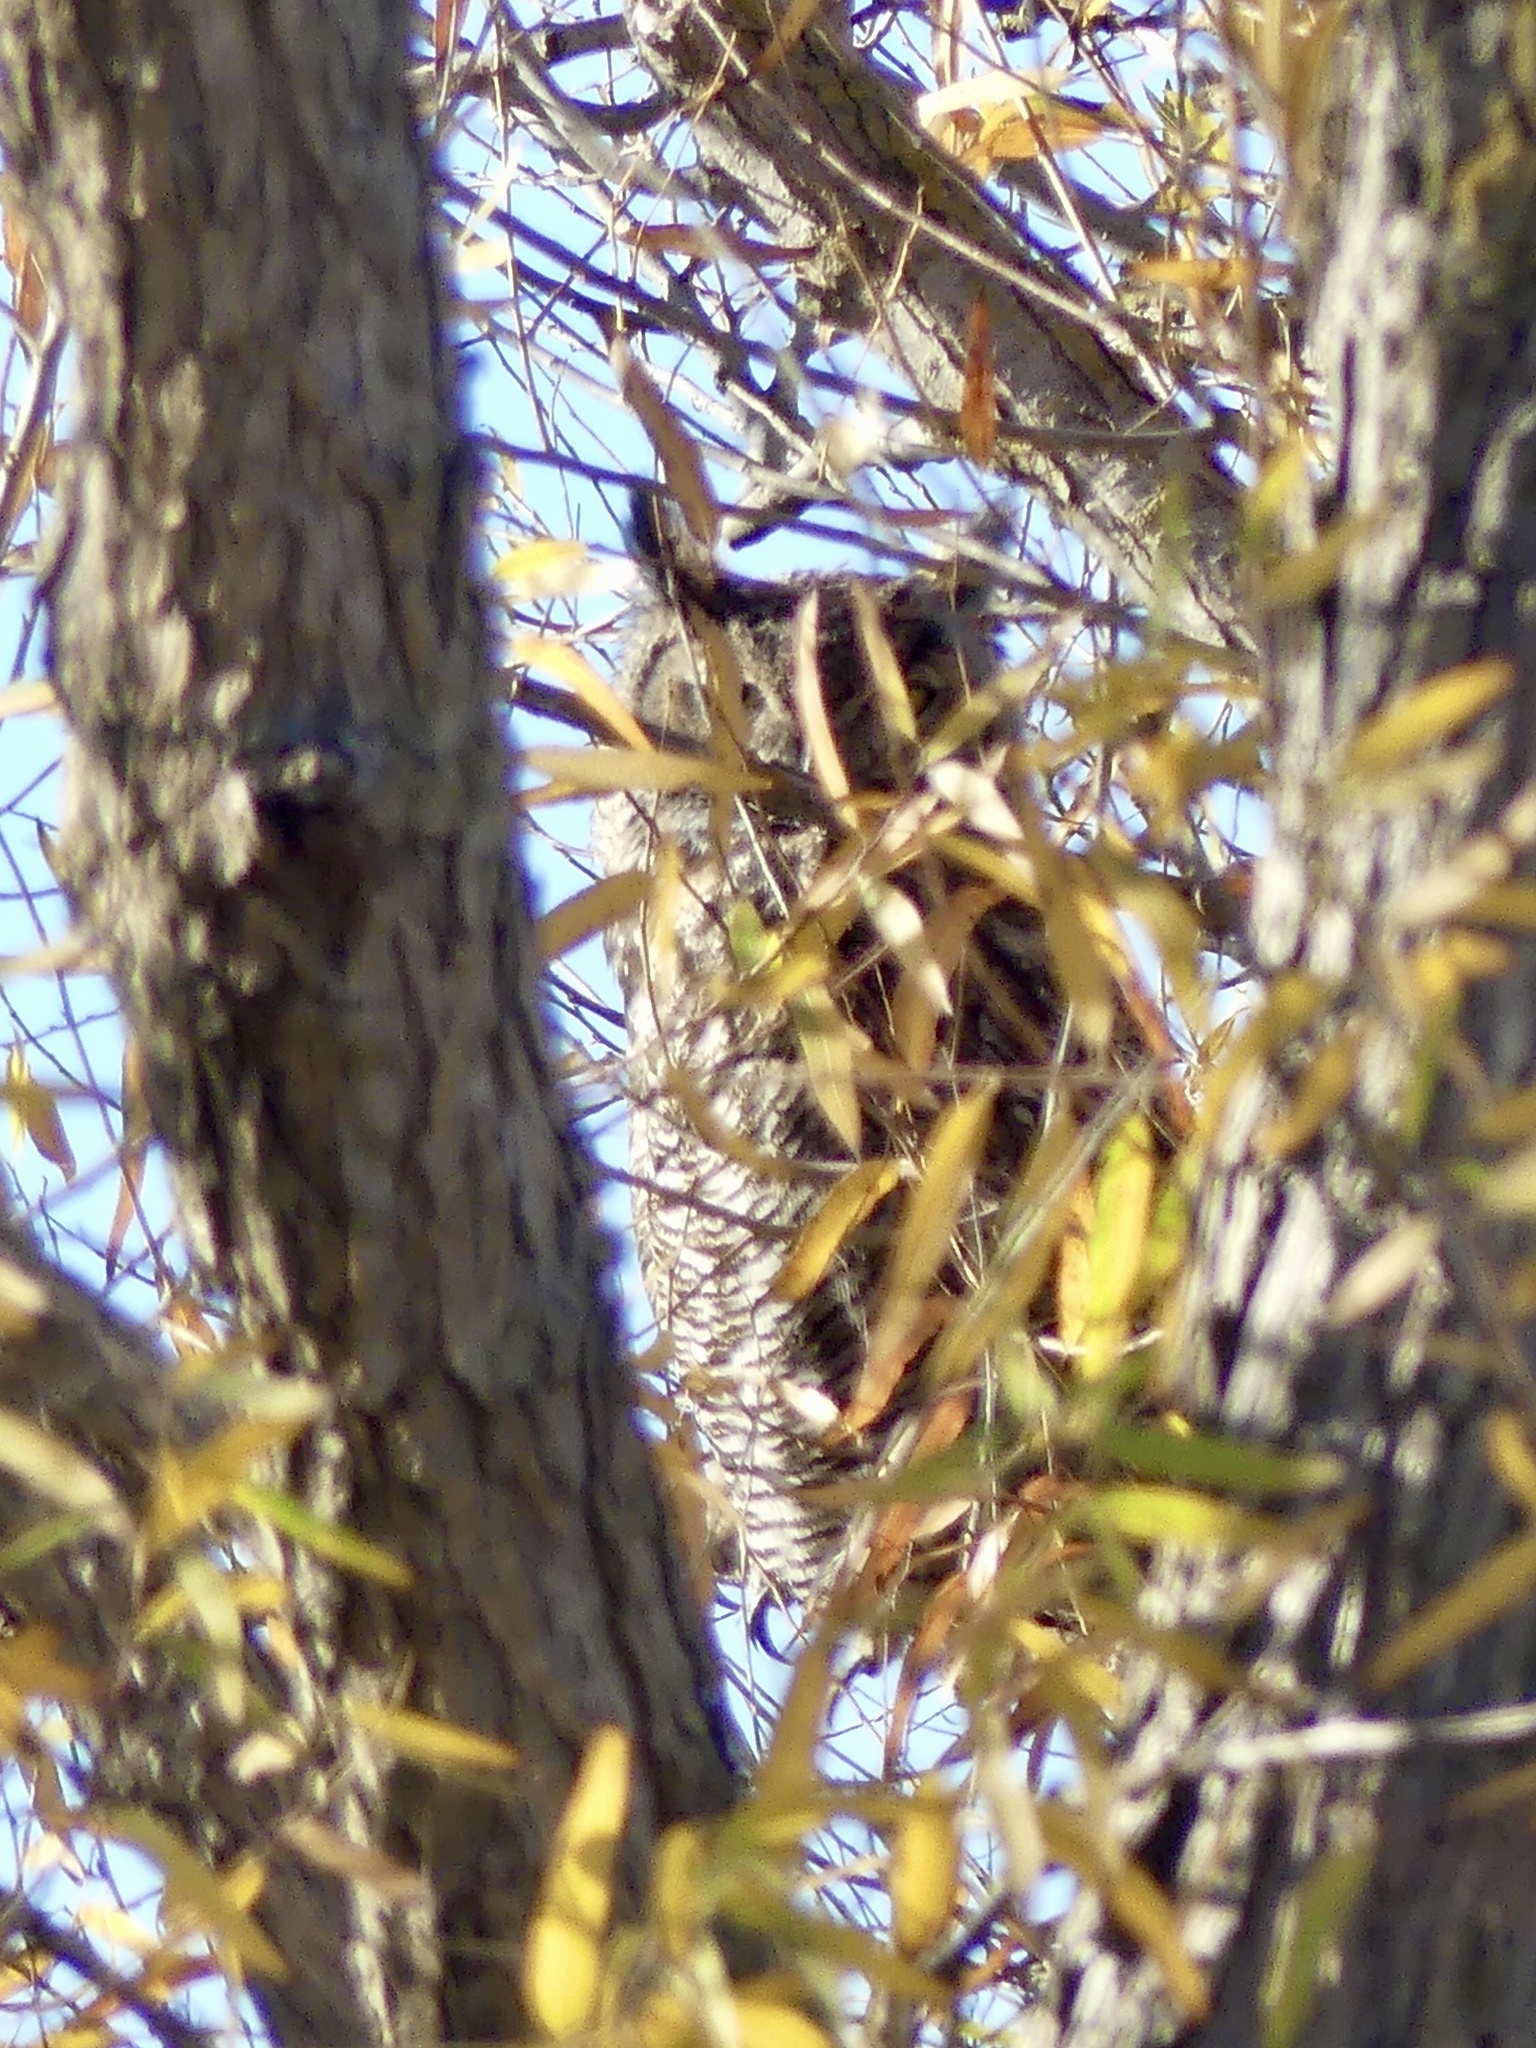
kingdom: Animalia
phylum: Chordata
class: Aves
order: Strigiformes
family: Strigidae
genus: Bubo
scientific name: Bubo virginianus
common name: Great horned owl
